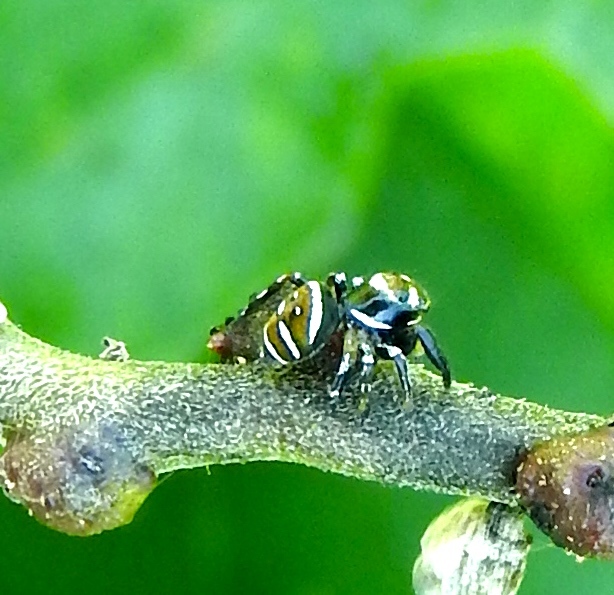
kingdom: Animalia
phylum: Arthropoda
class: Arachnida
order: Araneae
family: Salticidae
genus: Sassacus
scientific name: Sassacus
